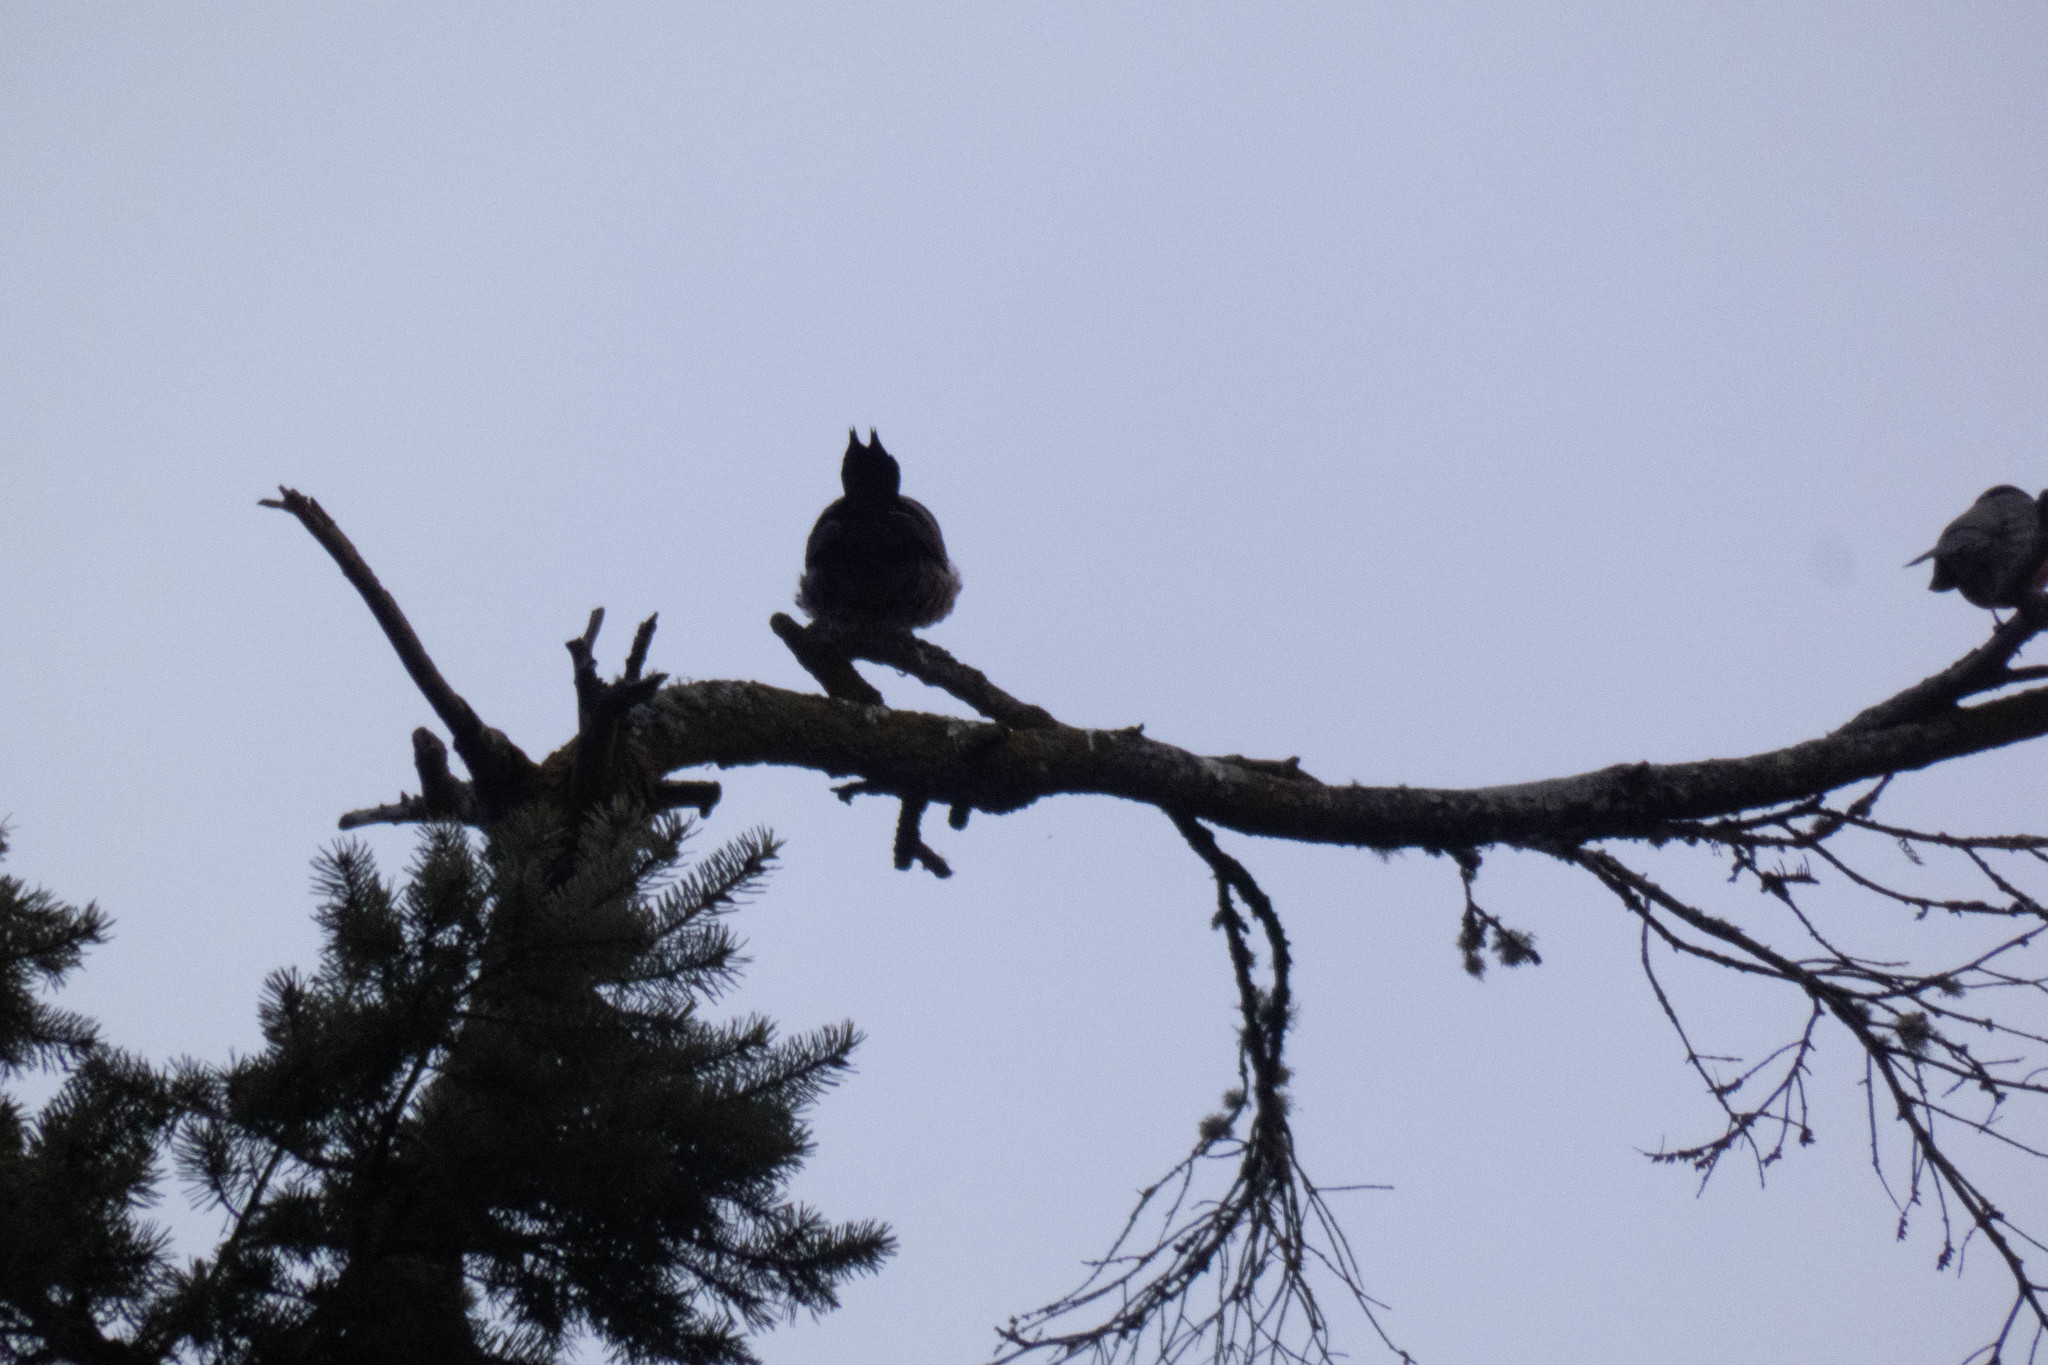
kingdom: Animalia
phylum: Chordata
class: Aves
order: Piciformes
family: Picidae
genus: Colaptes
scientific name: Colaptes auratus
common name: Northern flicker
